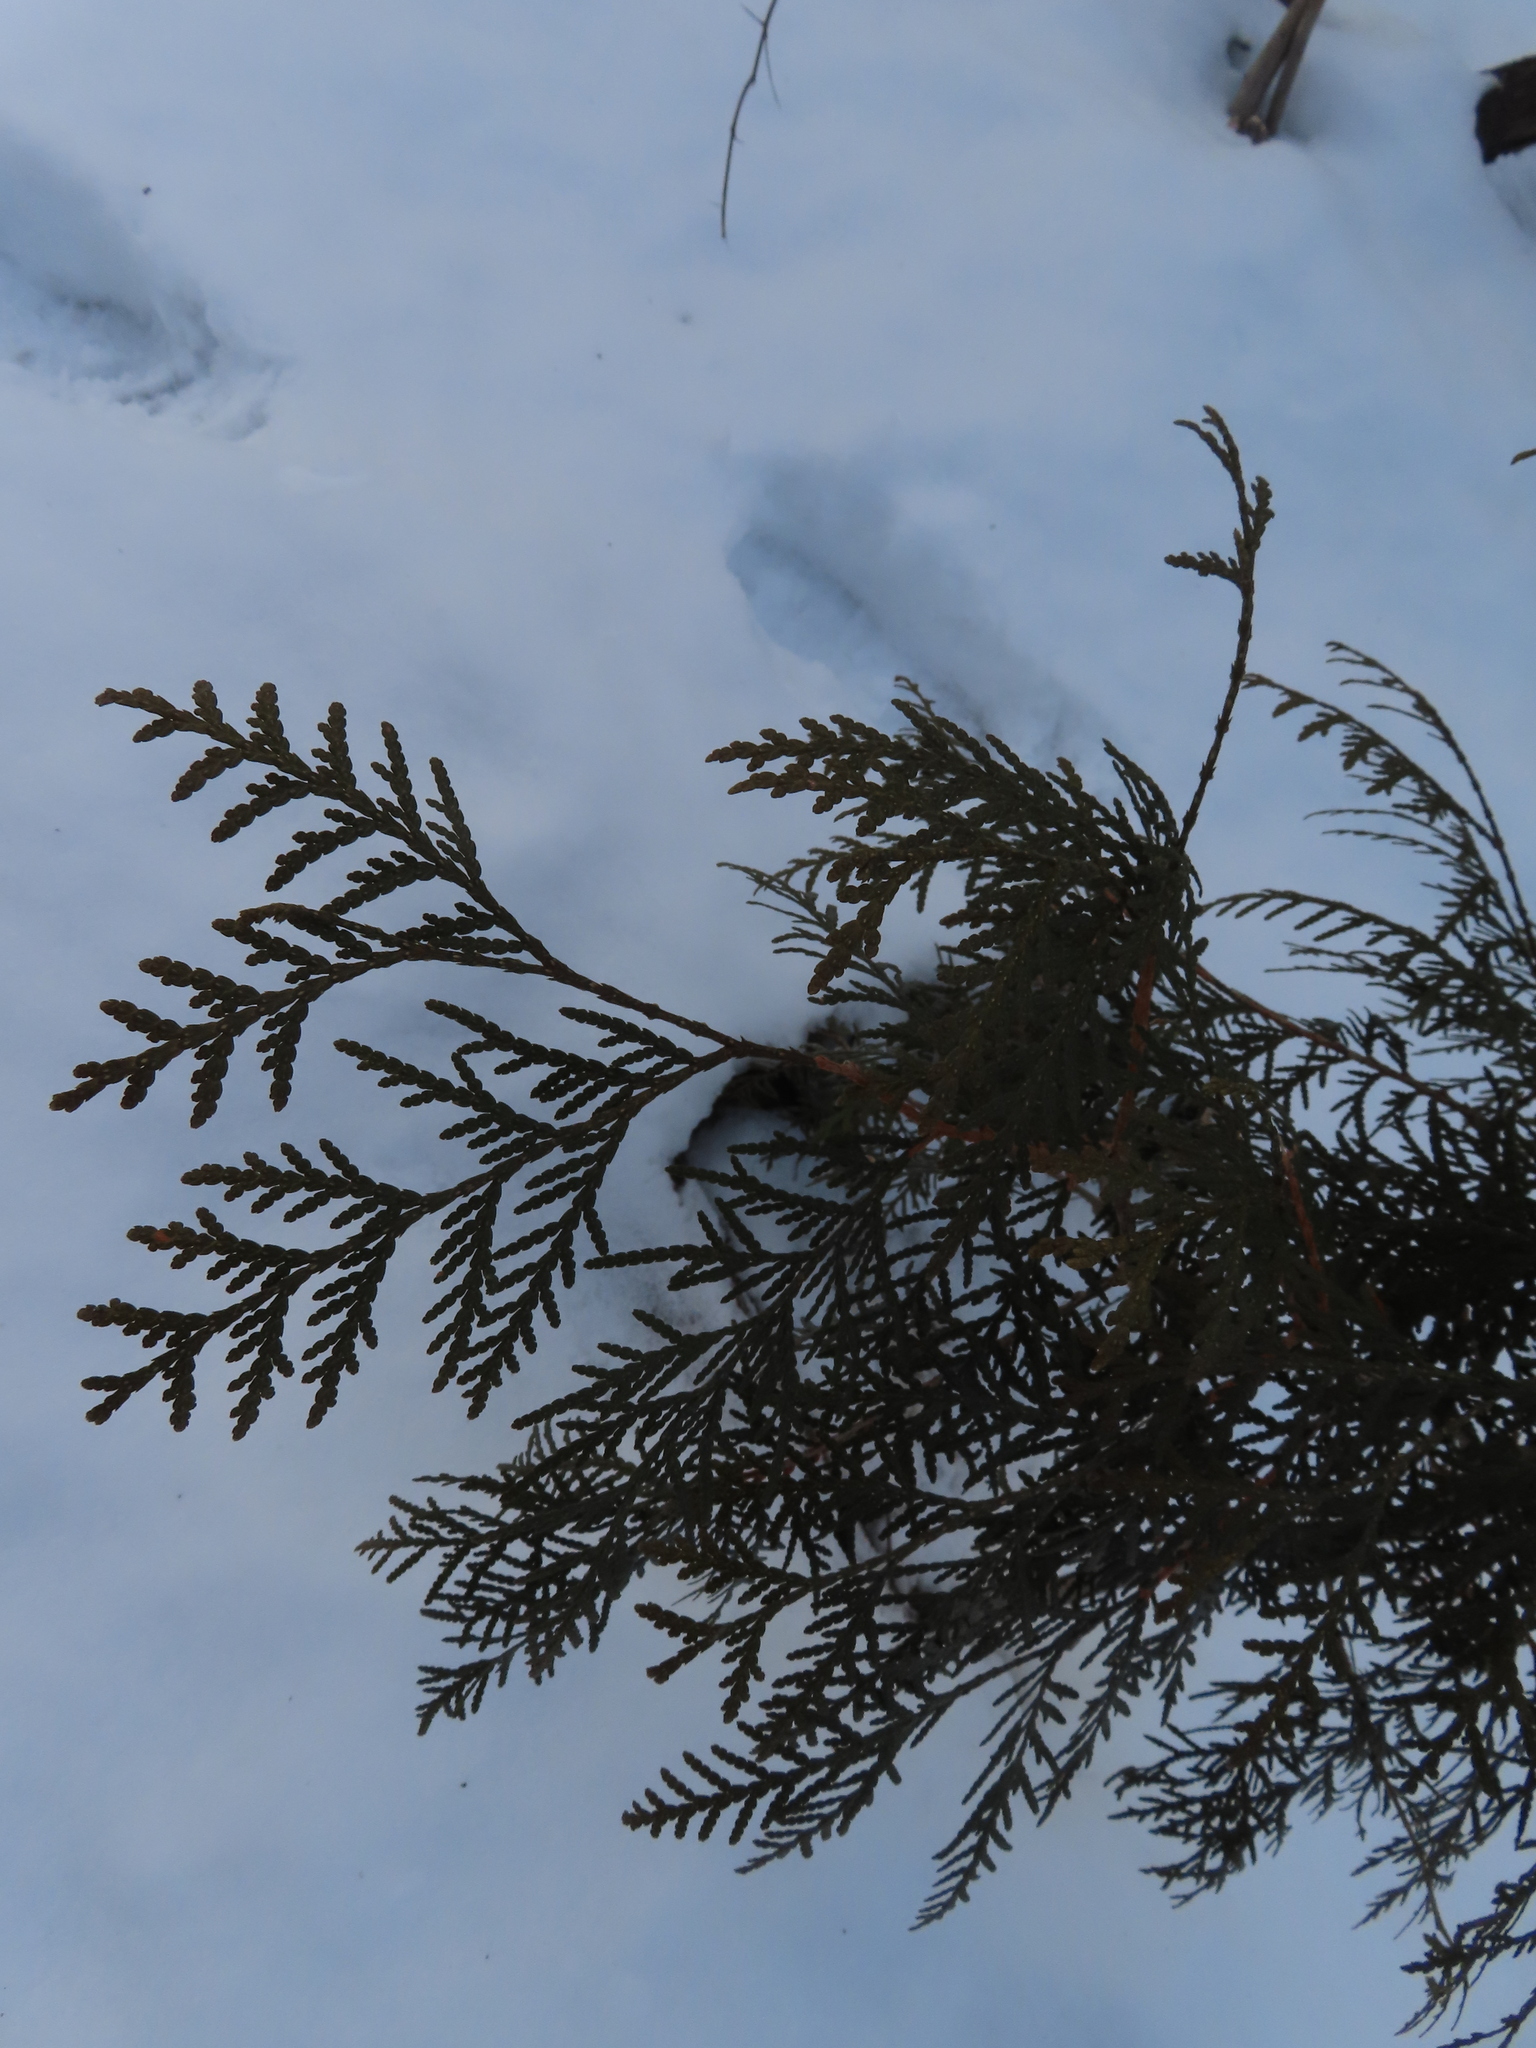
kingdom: Plantae
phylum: Tracheophyta
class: Pinopsida
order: Pinales
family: Cupressaceae
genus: Thuja
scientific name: Thuja occidentalis
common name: Northern white-cedar
